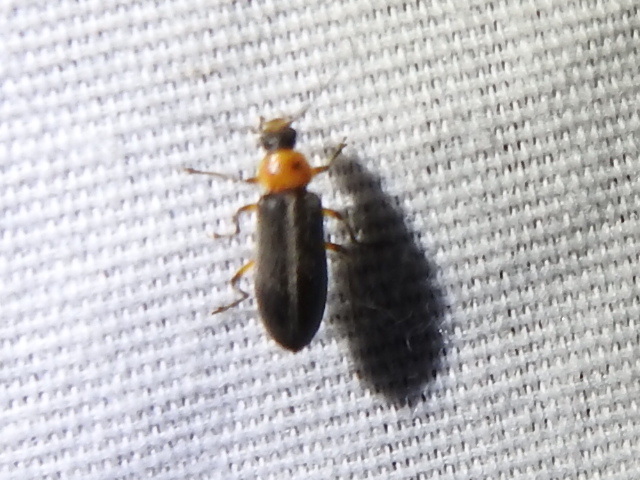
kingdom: Animalia
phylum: Arthropoda
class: Insecta
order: Coleoptera
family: Melandryidae
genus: Osphya
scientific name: Osphya varians
